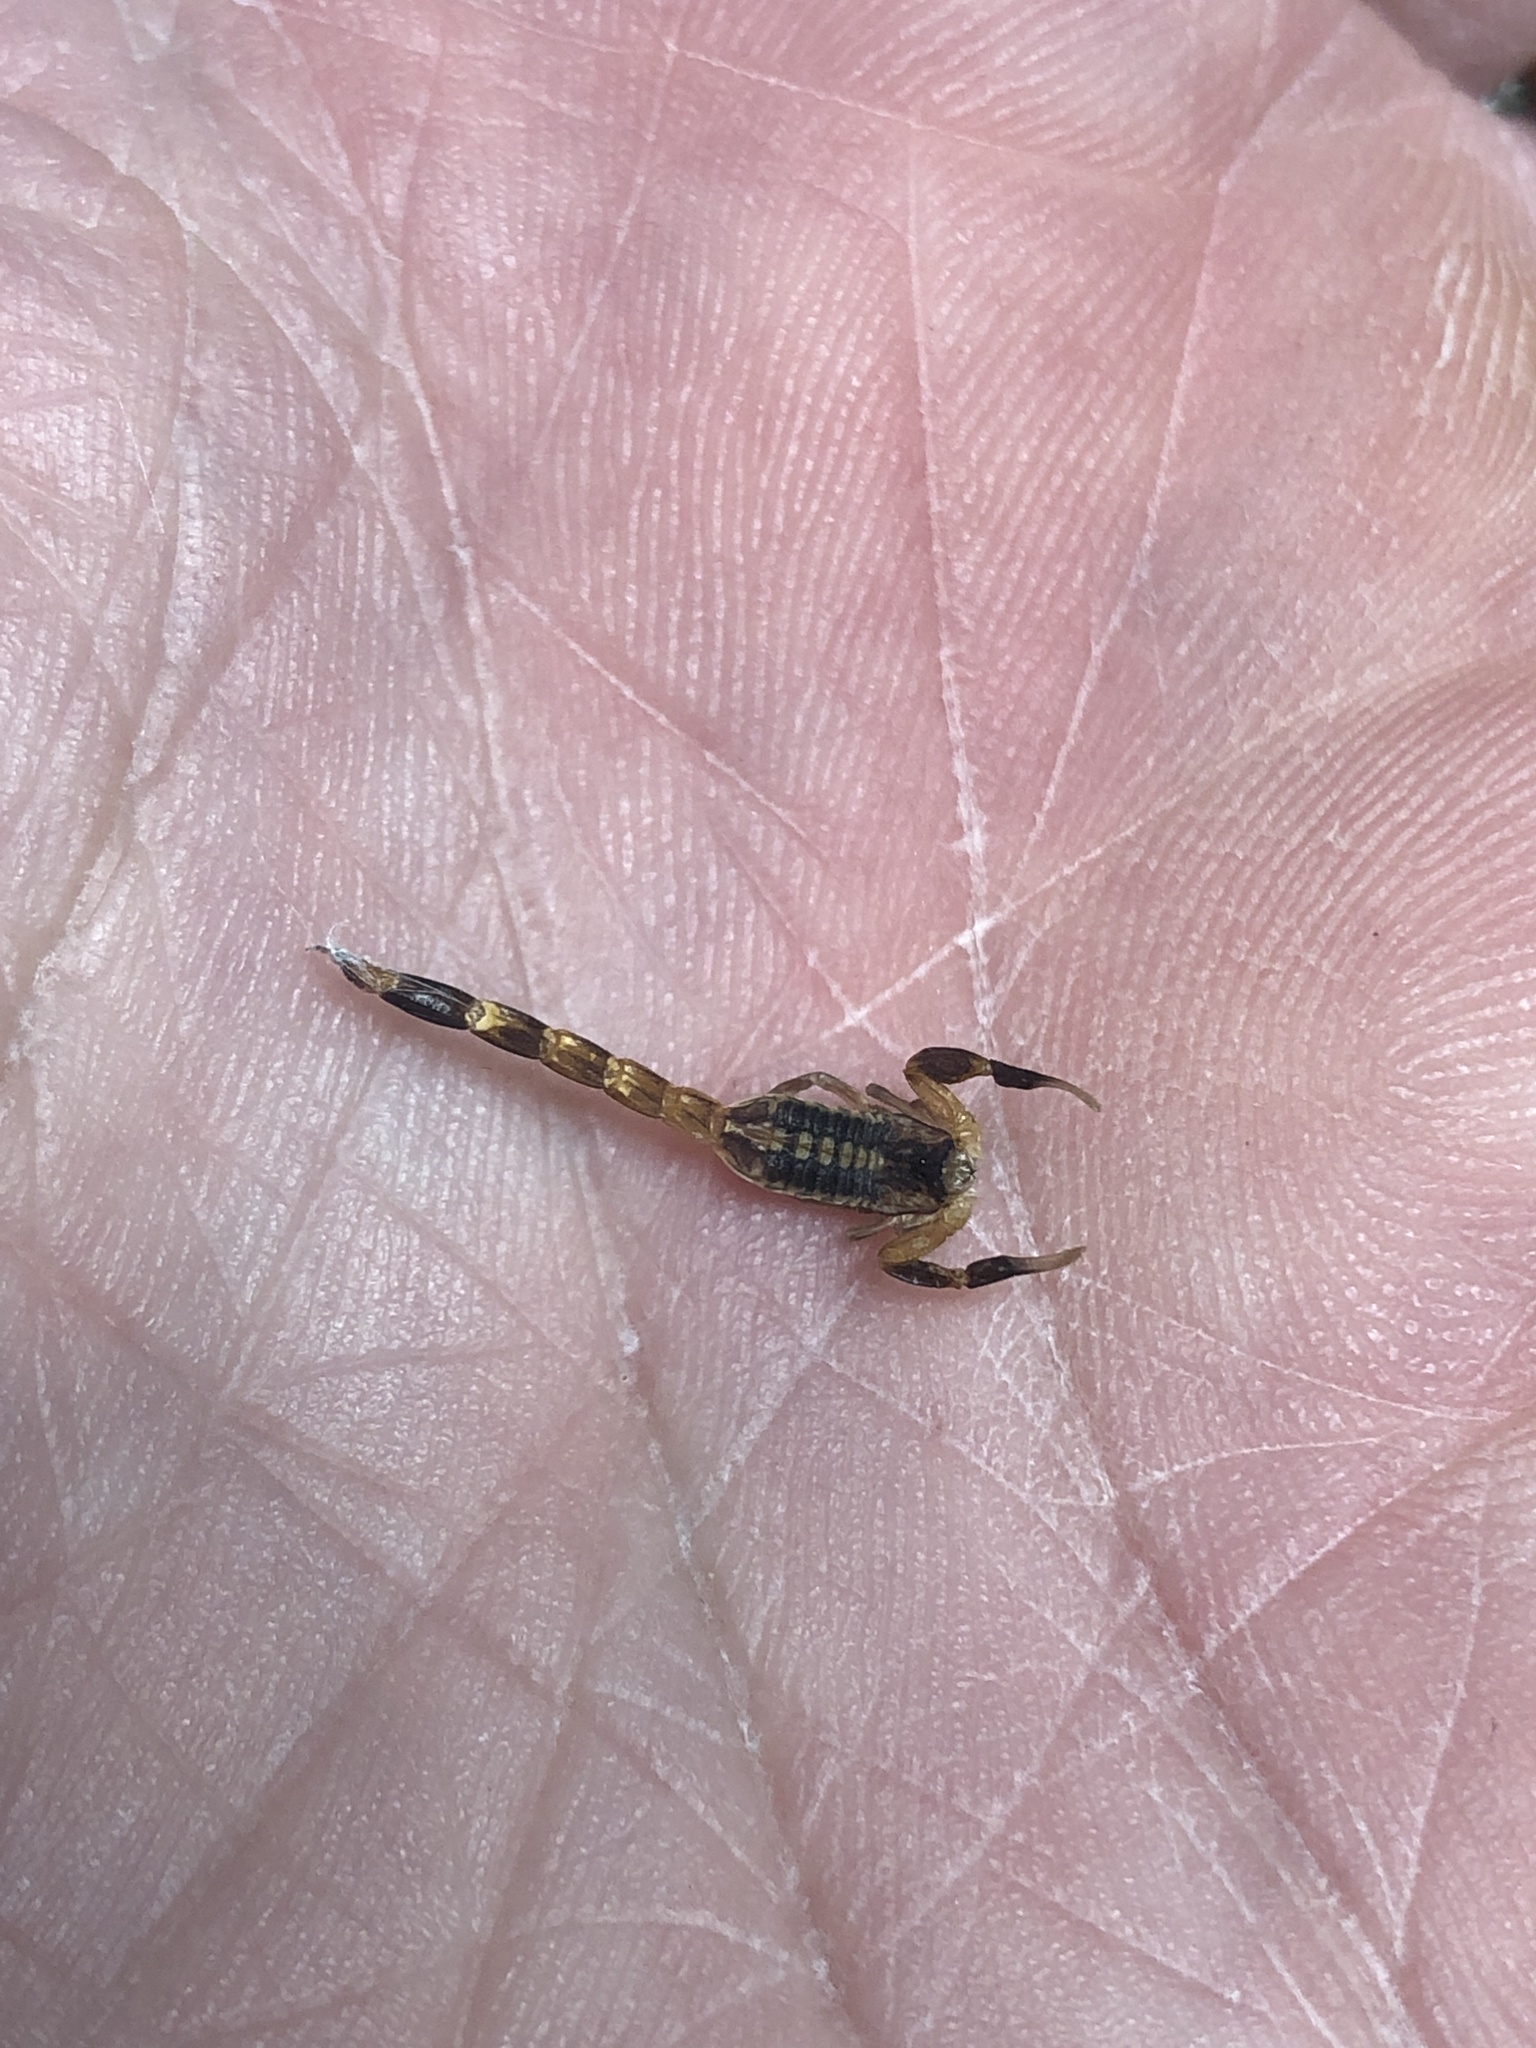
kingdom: Animalia
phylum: Arthropoda
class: Arachnida
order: Scorpiones
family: Buthidae
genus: Centruroides
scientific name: Centruroides vittatus
